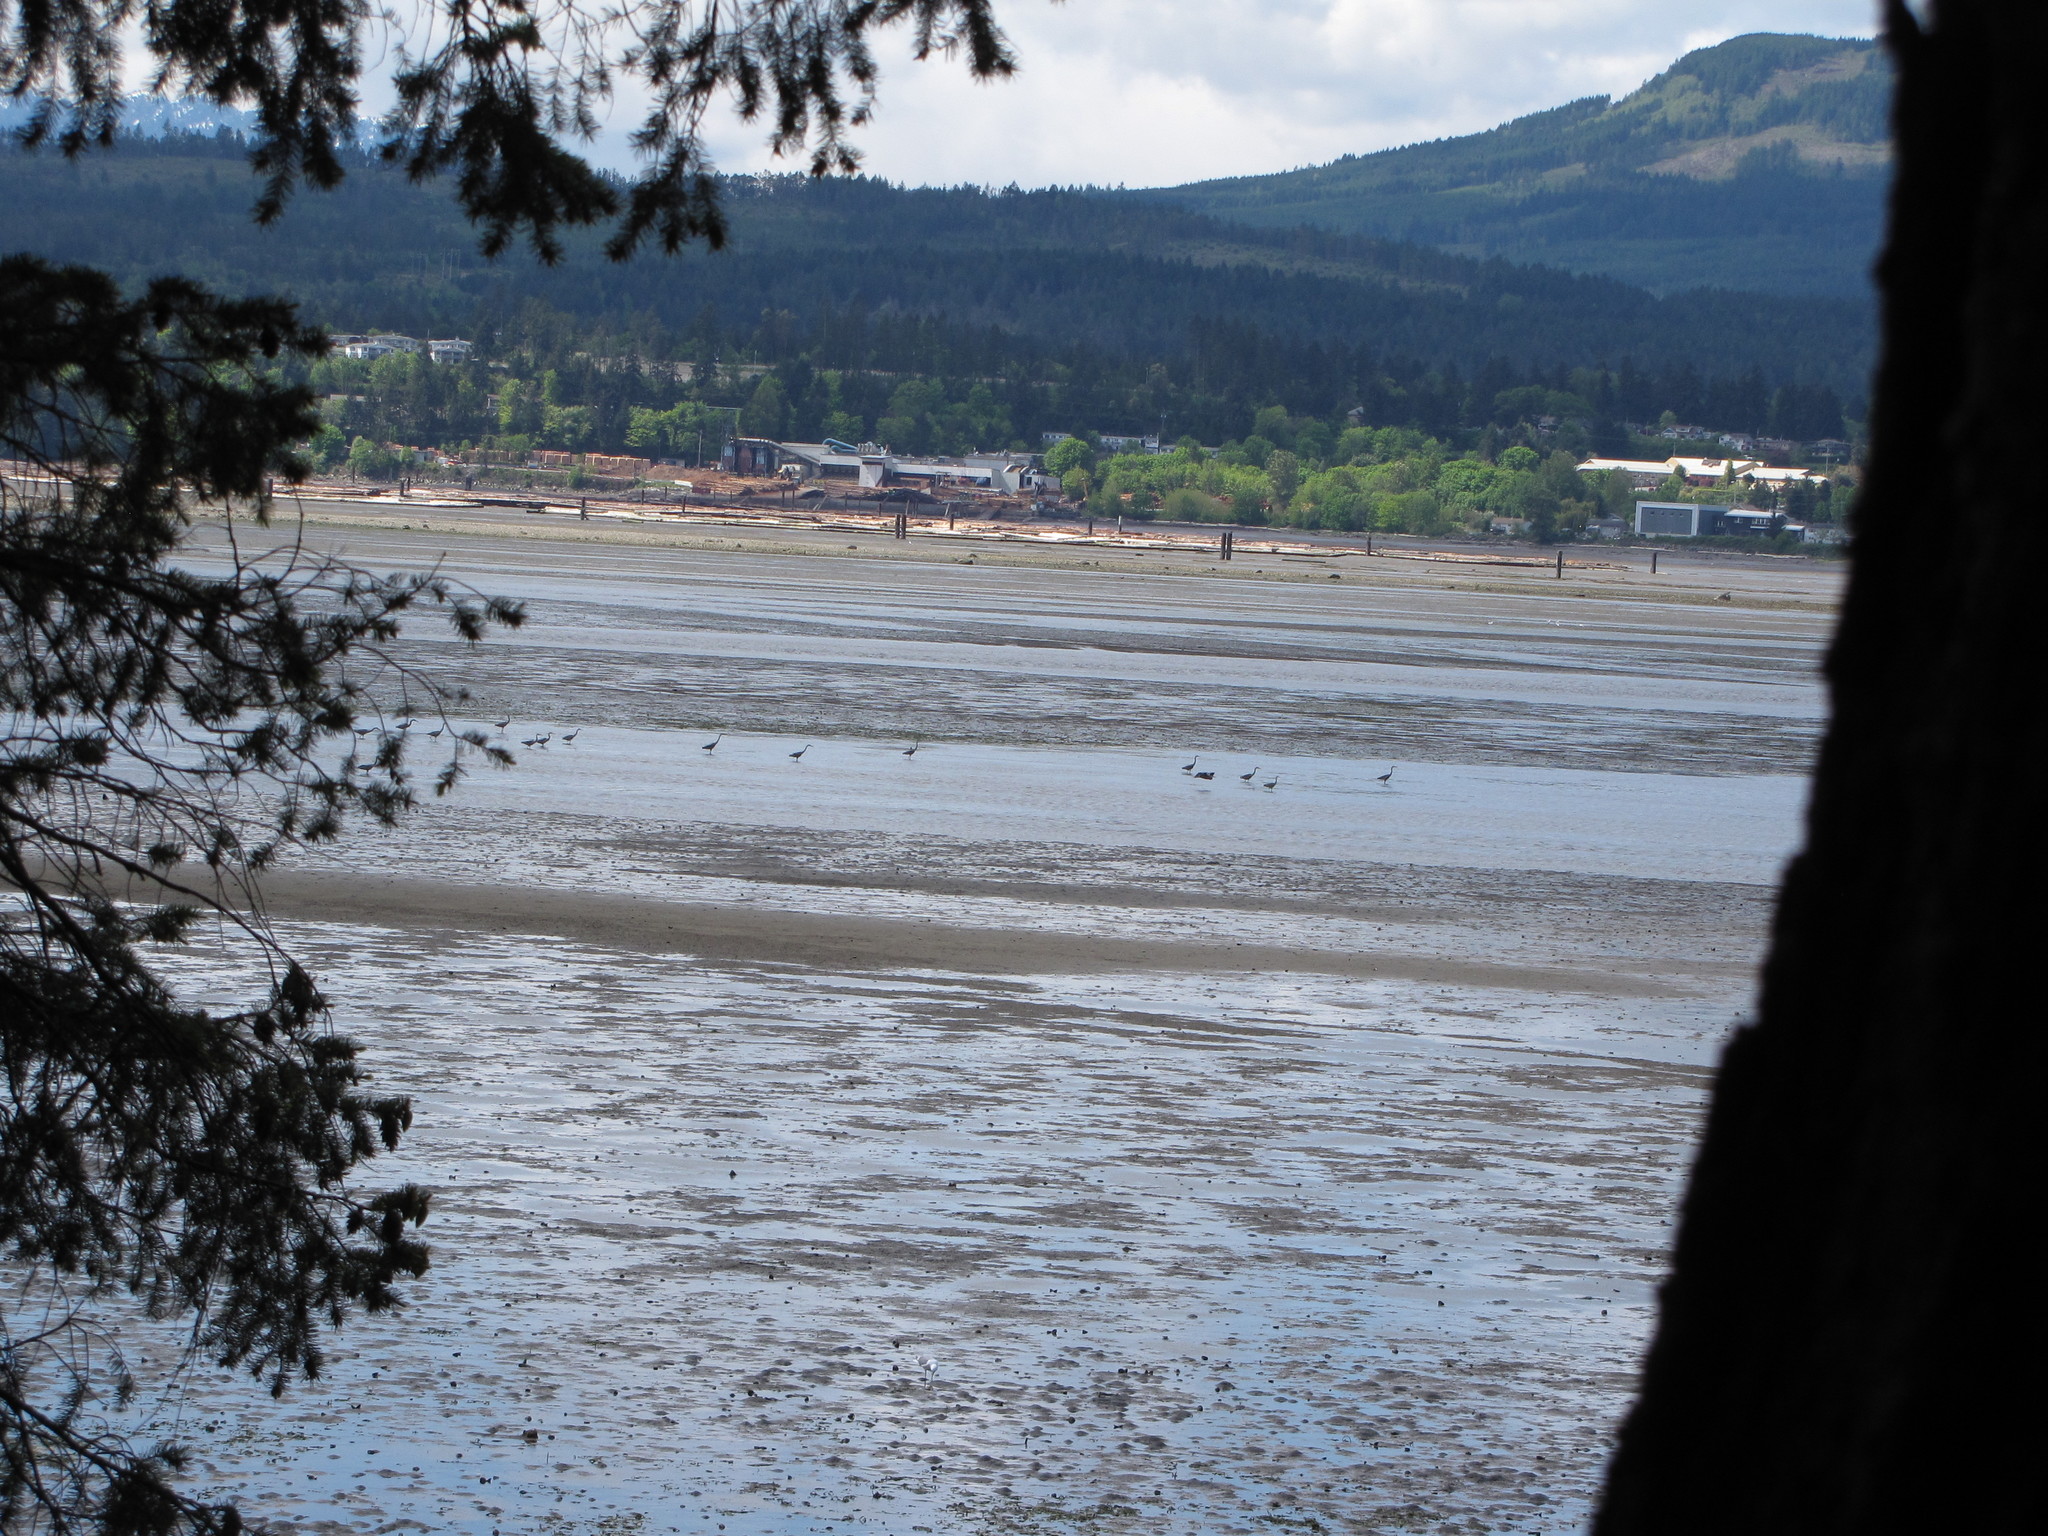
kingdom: Animalia
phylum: Chordata
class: Aves
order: Pelecaniformes
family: Ardeidae
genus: Ardea
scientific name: Ardea herodias
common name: Great blue heron
